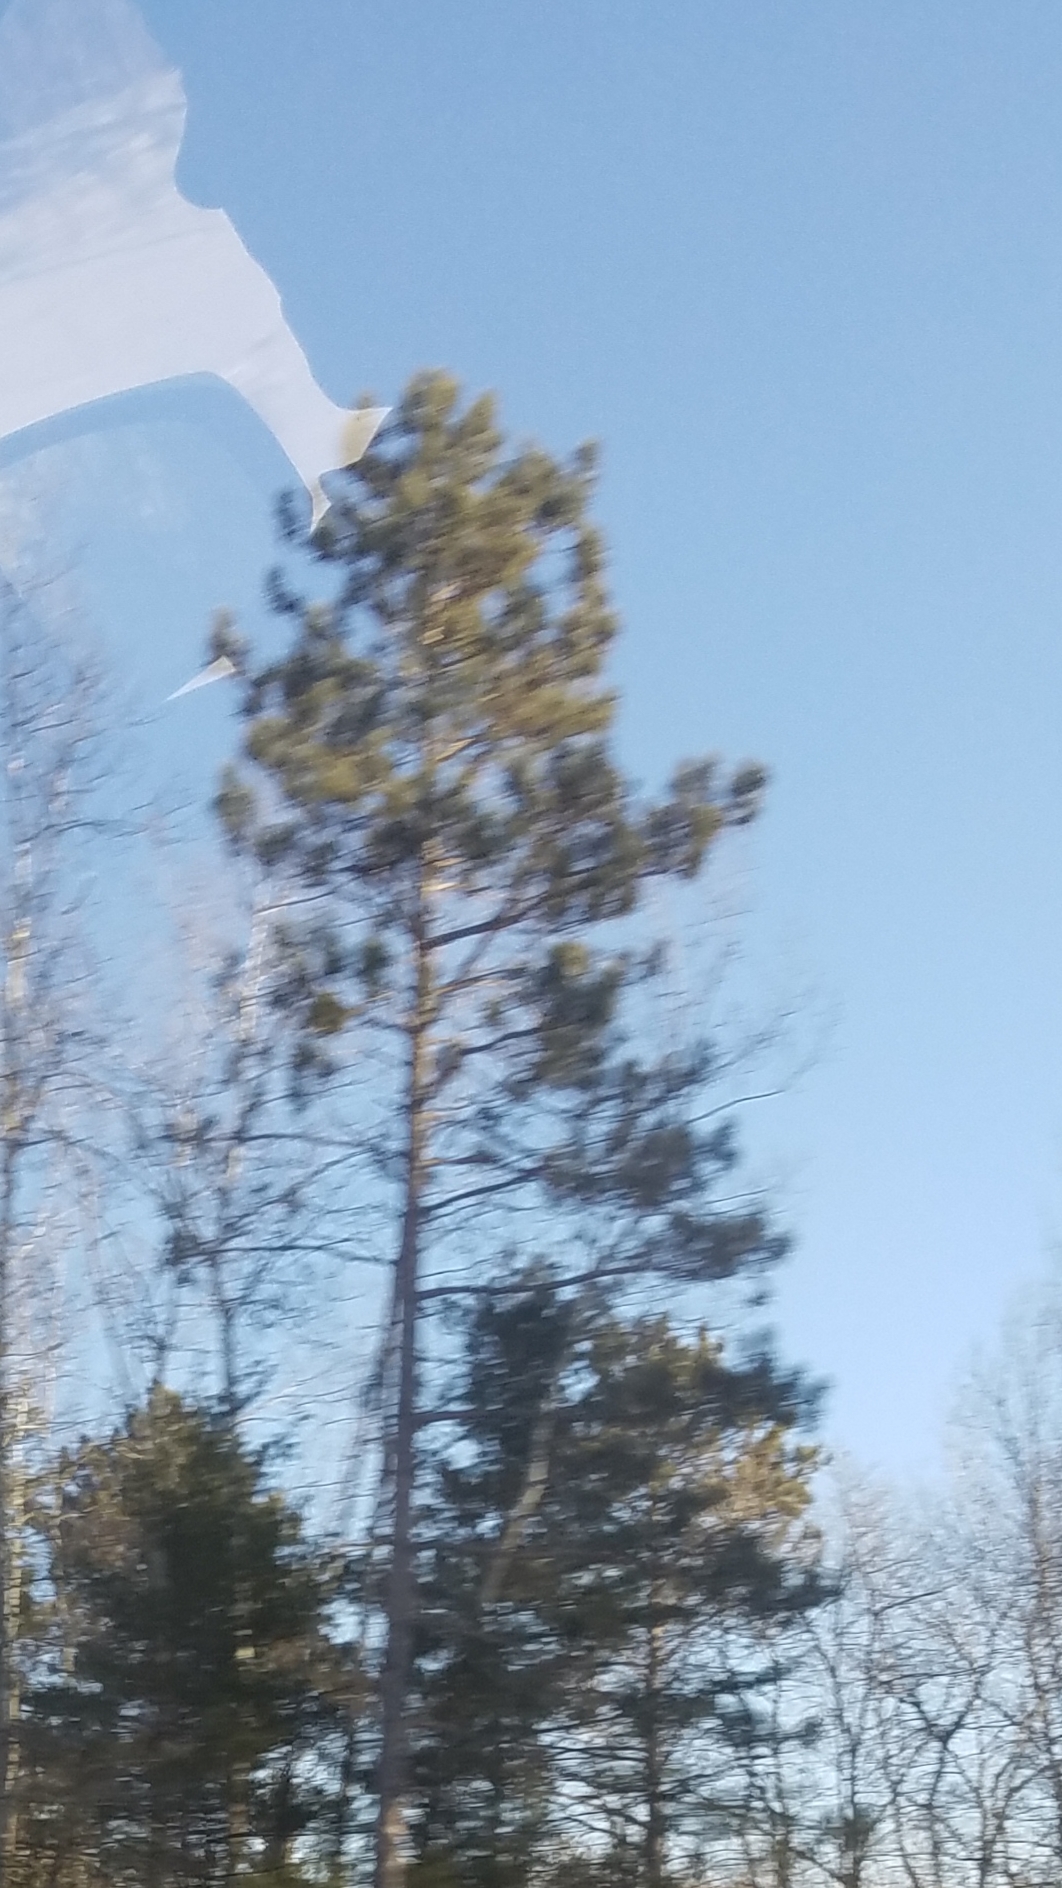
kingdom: Plantae
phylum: Tracheophyta
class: Pinopsida
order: Pinales
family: Pinaceae
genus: Pinus
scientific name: Pinus resinosa
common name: Norway pine
